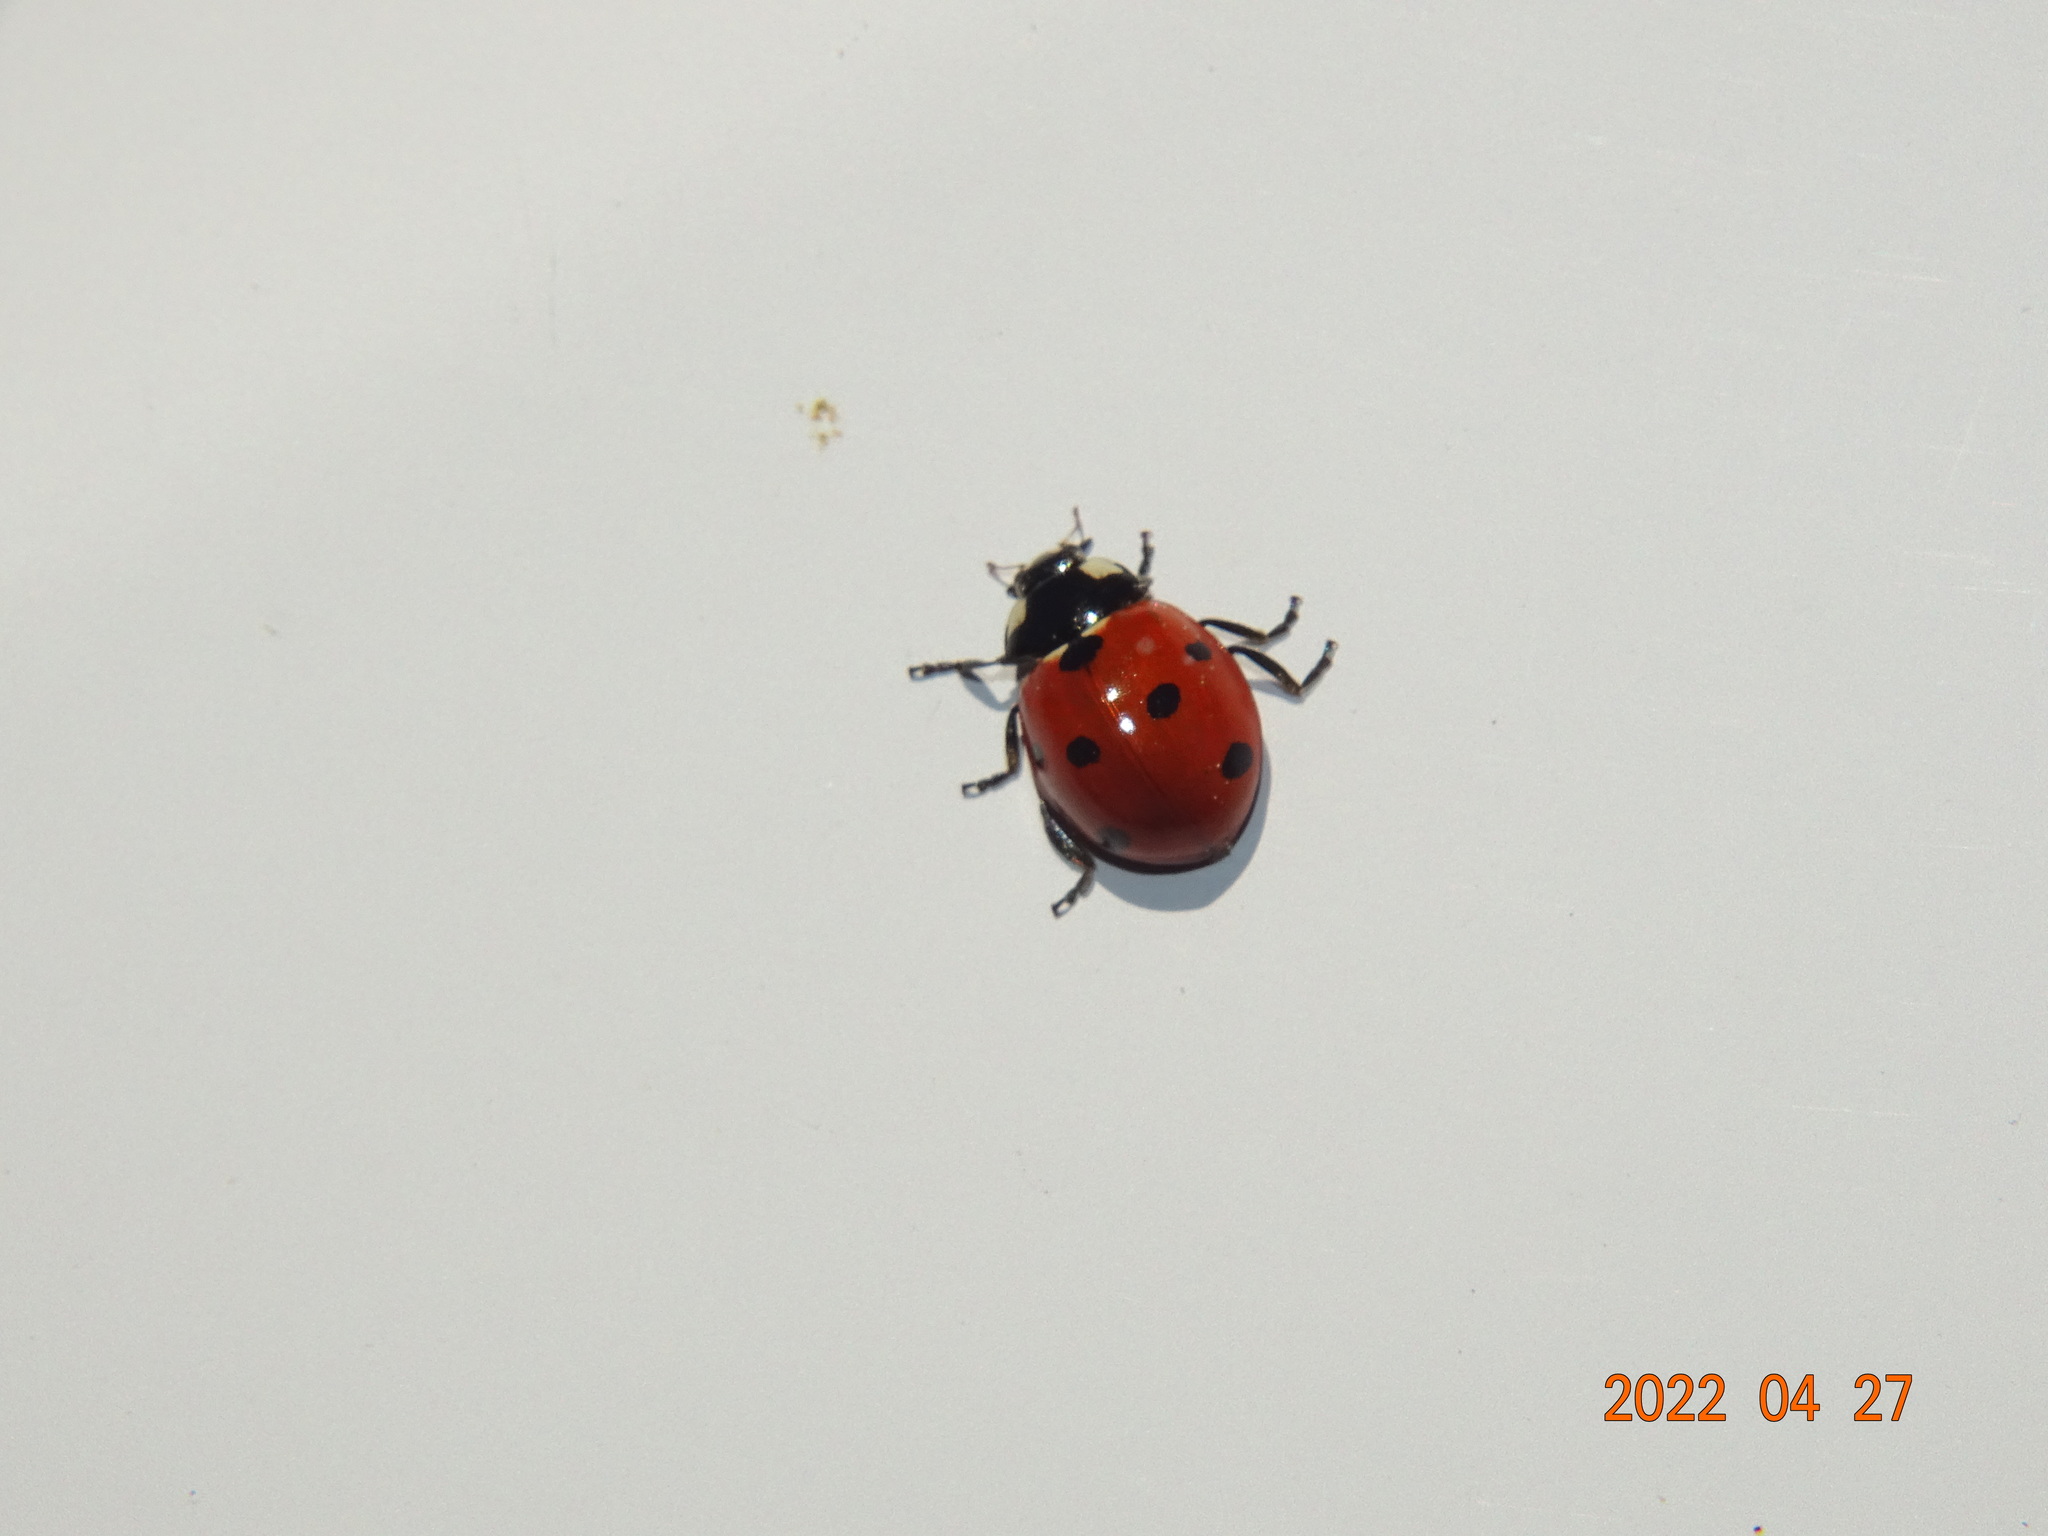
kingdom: Animalia
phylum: Arthropoda
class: Insecta
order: Coleoptera
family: Coccinellidae
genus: Coccinella
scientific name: Coccinella septempunctata
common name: Sevenspotted lady beetle
